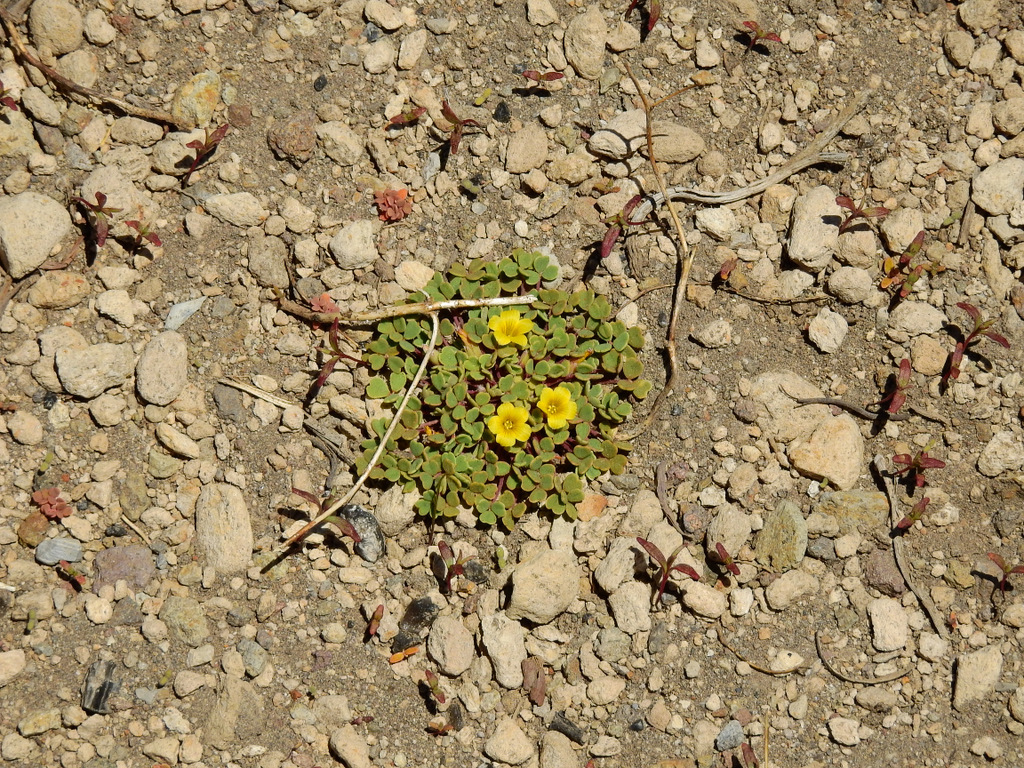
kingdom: Plantae
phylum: Tracheophyta
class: Magnoliopsida
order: Oxalidales
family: Oxalidaceae
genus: Oxalis
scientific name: Oxalis compacta
